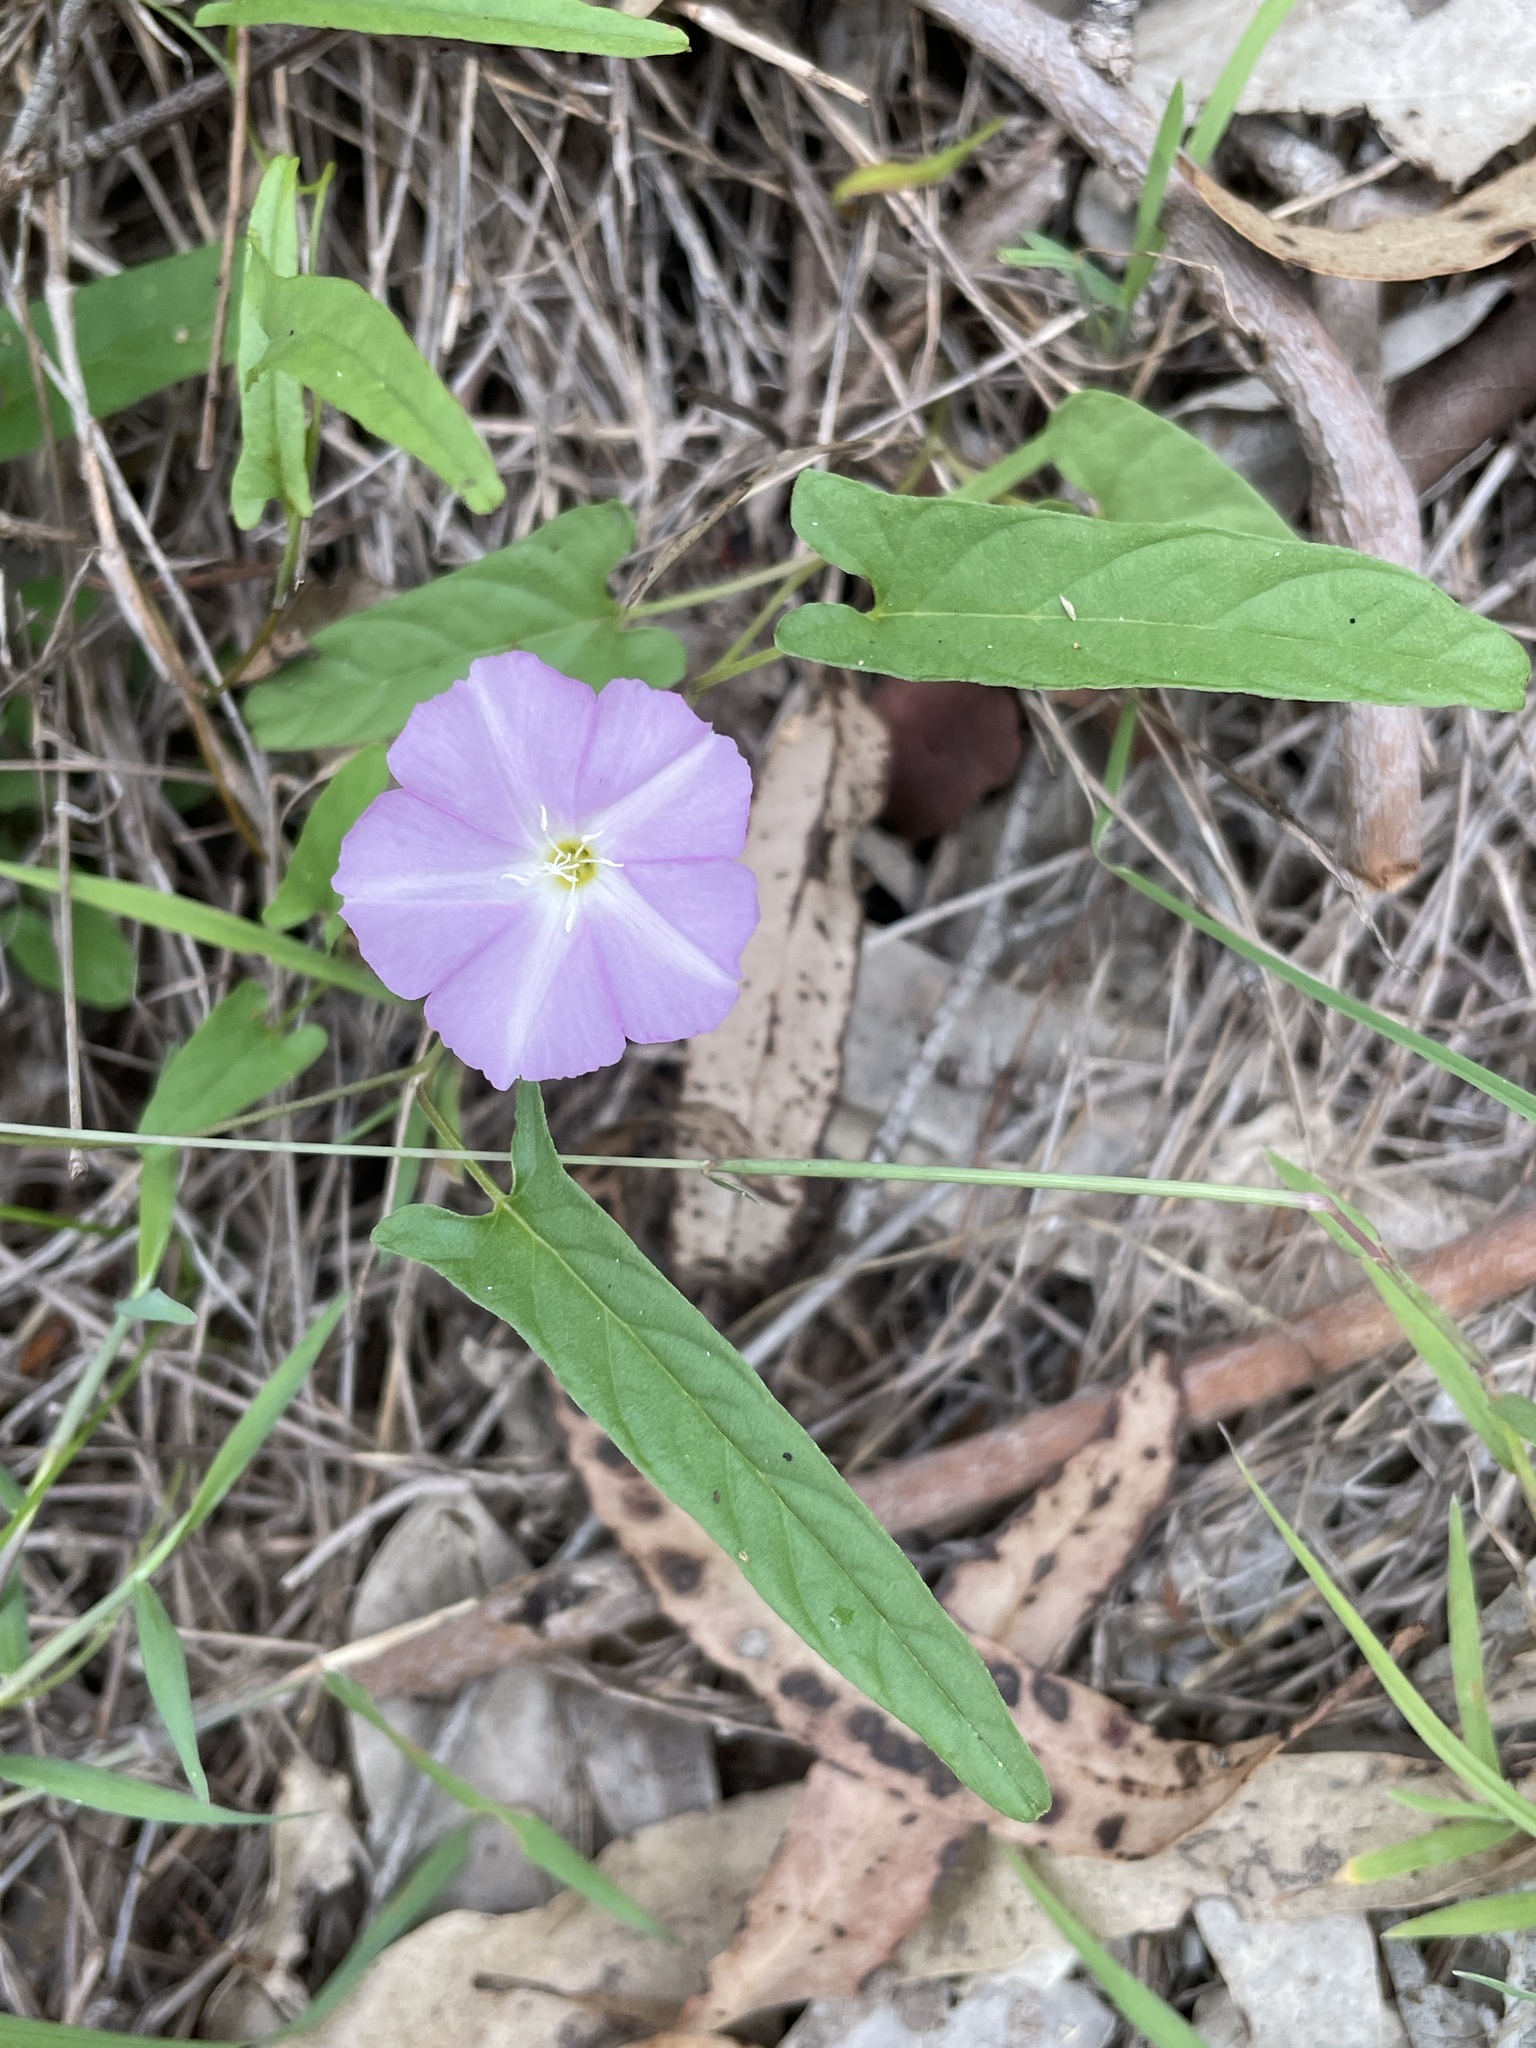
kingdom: Plantae
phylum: Tracheophyta
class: Magnoliopsida
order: Solanales
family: Convolvulaceae
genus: Polymeria
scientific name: Polymeria calycina
